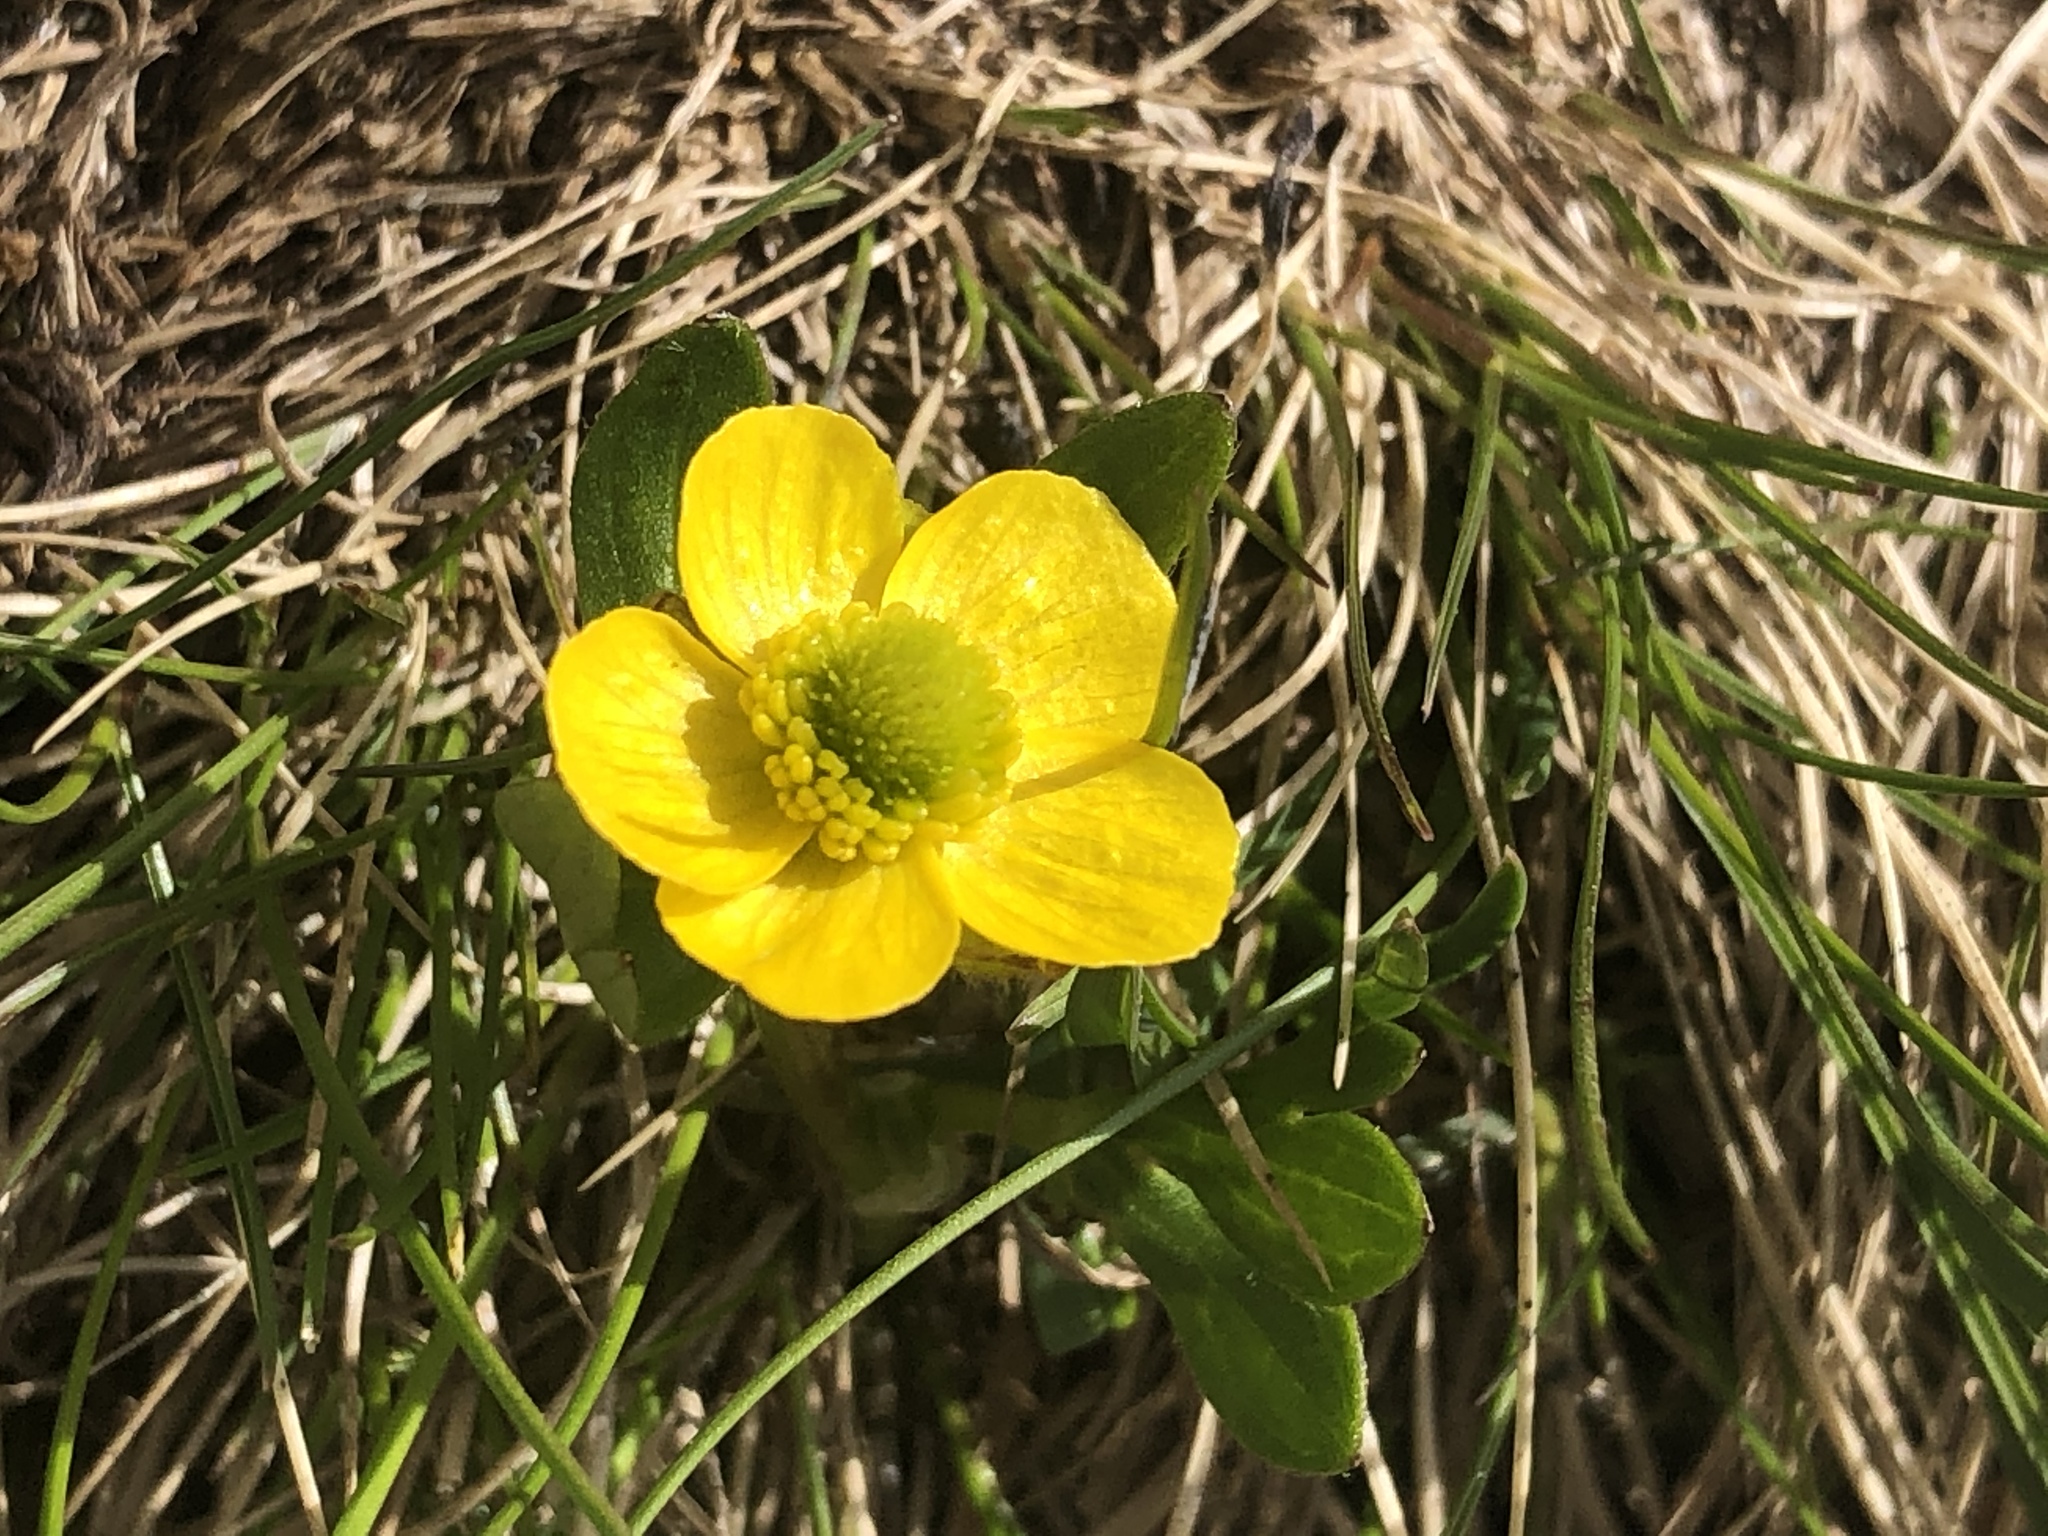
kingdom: Plantae
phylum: Tracheophyta
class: Magnoliopsida
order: Ranunculales
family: Ranunculaceae
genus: Ranunculus
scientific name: Ranunculus glaberrimus
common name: Sagebrush buttercup
